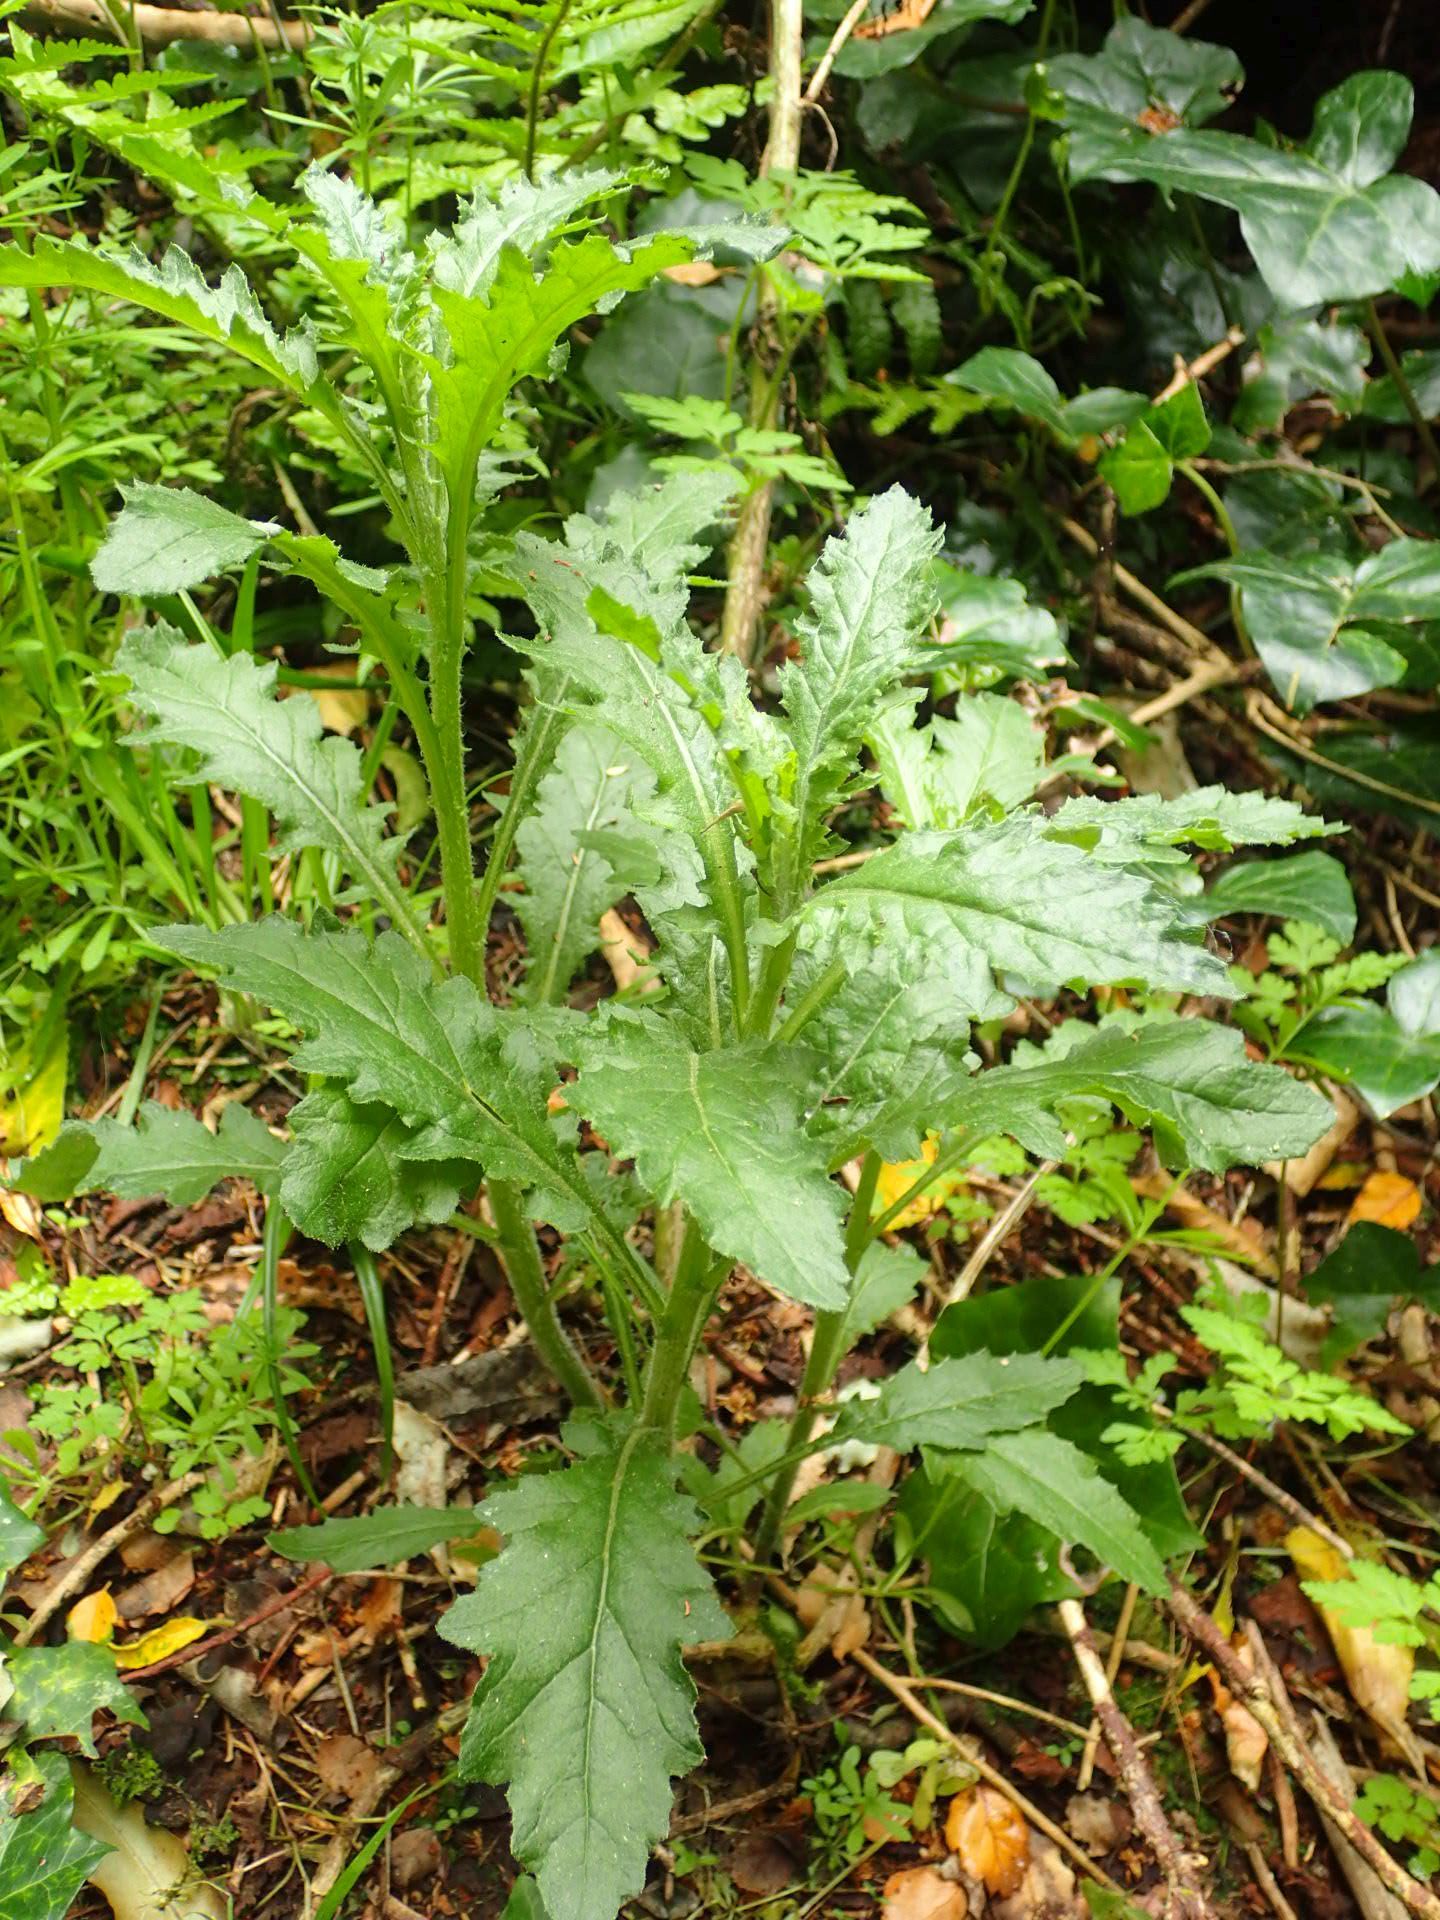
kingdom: Plantae
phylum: Tracheophyta
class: Magnoliopsida
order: Asterales
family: Asteraceae
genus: Senecio
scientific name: Senecio biserratus
